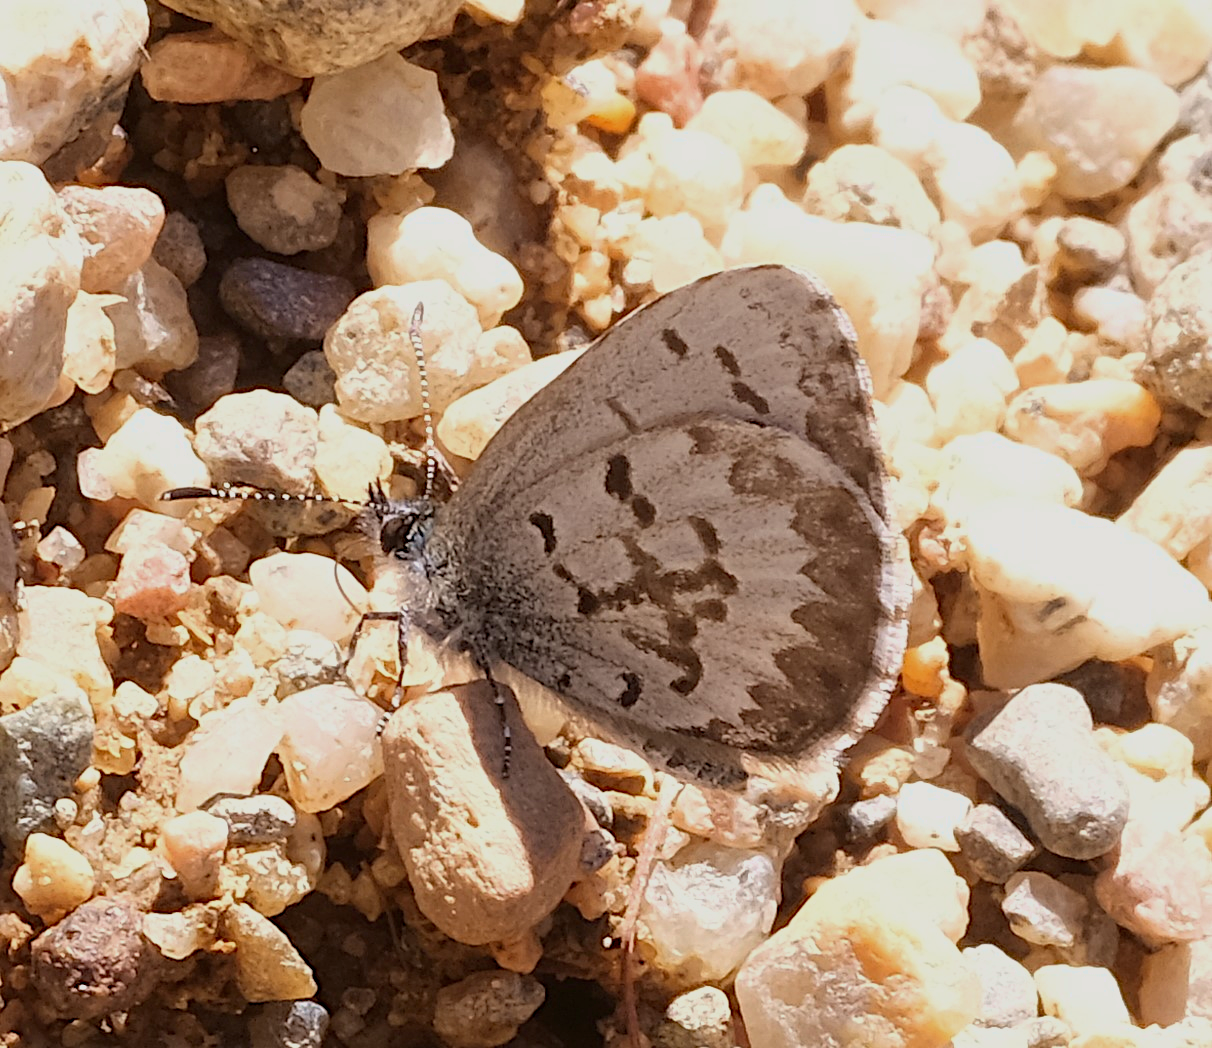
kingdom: Animalia
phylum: Arthropoda
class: Insecta
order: Lepidoptera
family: Lycaenidae
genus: Celastrina
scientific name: Celastrina lucia
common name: Lucia azure
